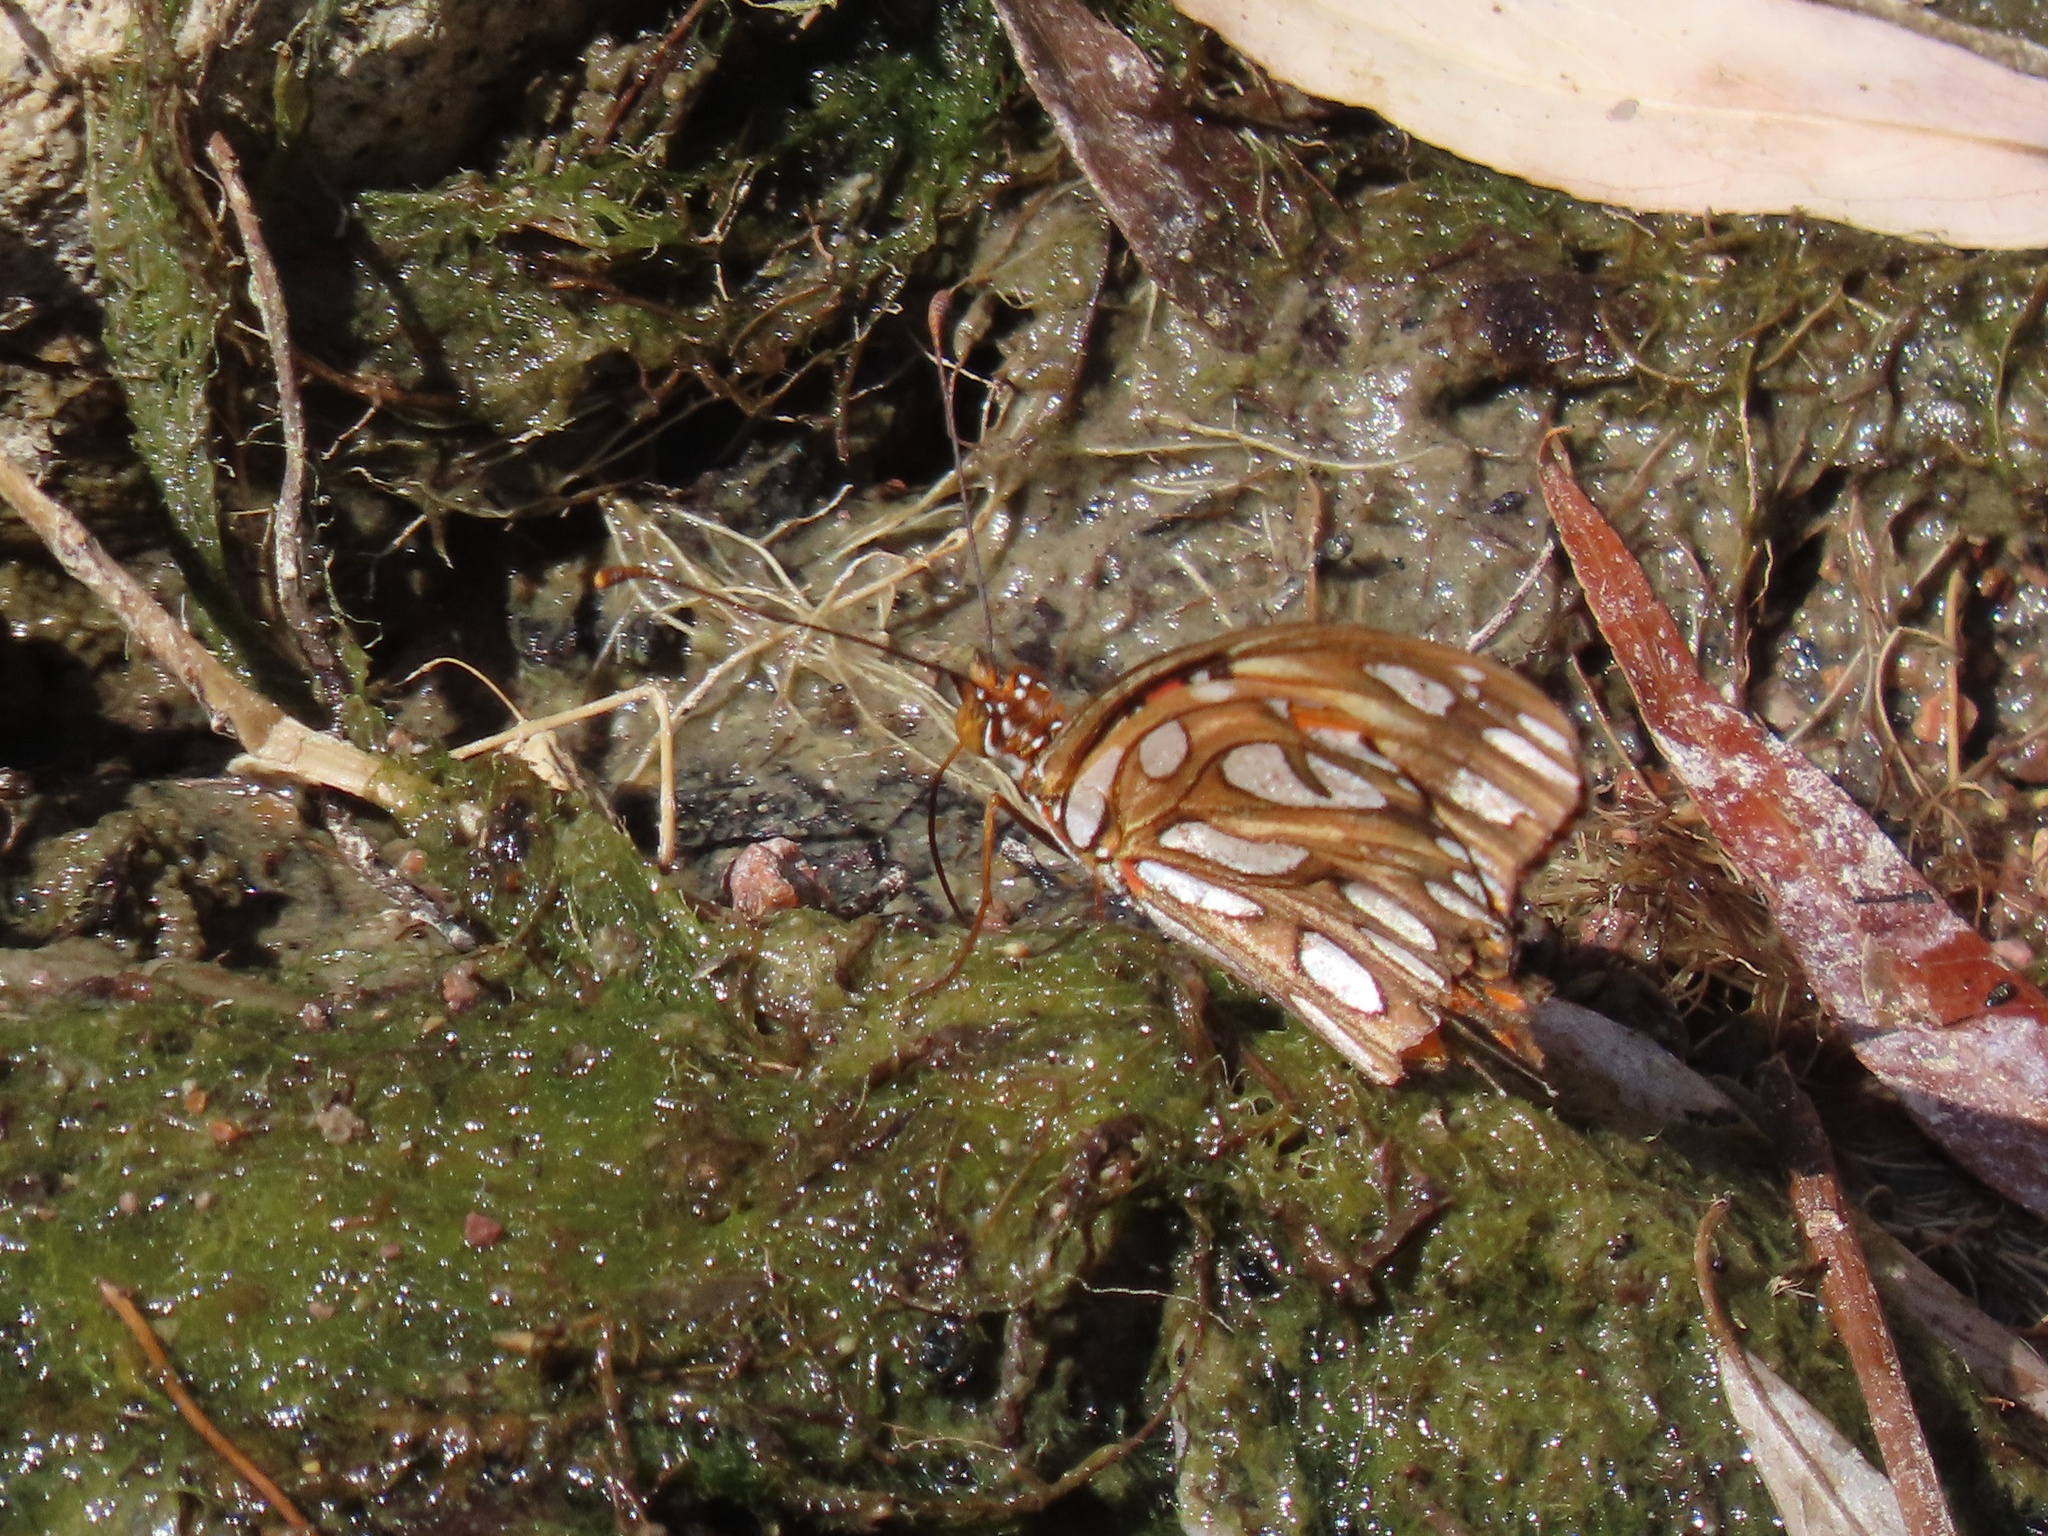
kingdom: Animalia
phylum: Arthropoda
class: Insecta
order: Lepidoptera
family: Nymphalidae
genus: Dione
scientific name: Dione vanillae
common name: Gulf fritillary
